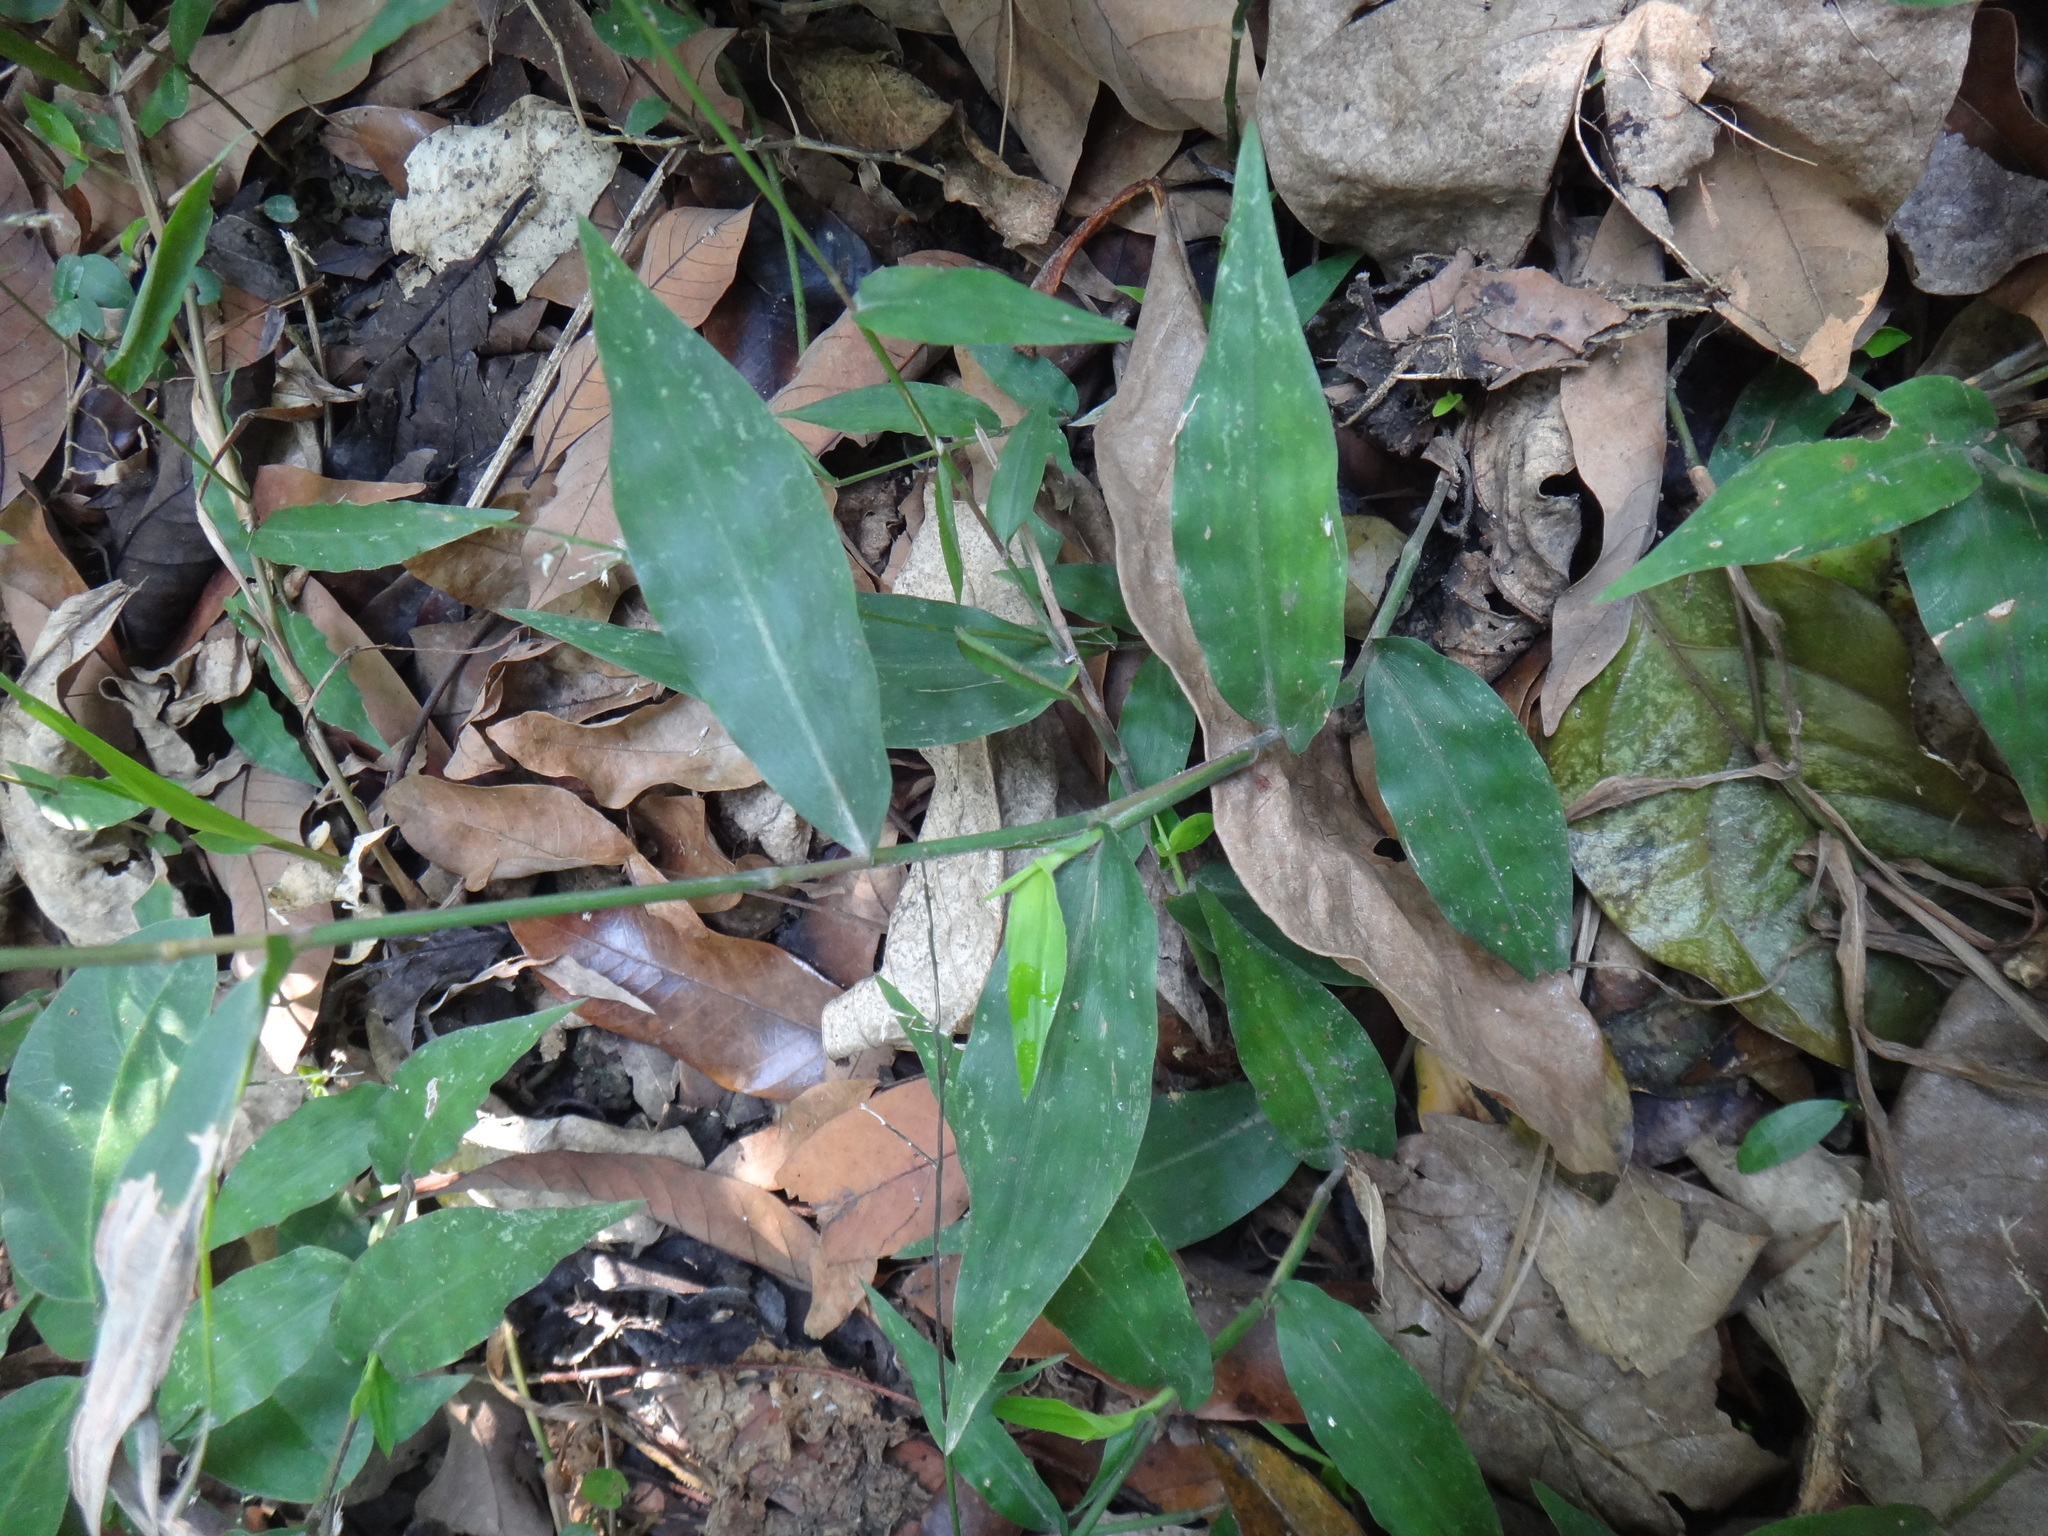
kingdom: Plantae
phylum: Tracheophyta
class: Liliopsida
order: Poales
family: Poaceae
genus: Oplismenus
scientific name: Oplismenus compositus
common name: Running mountain grass
